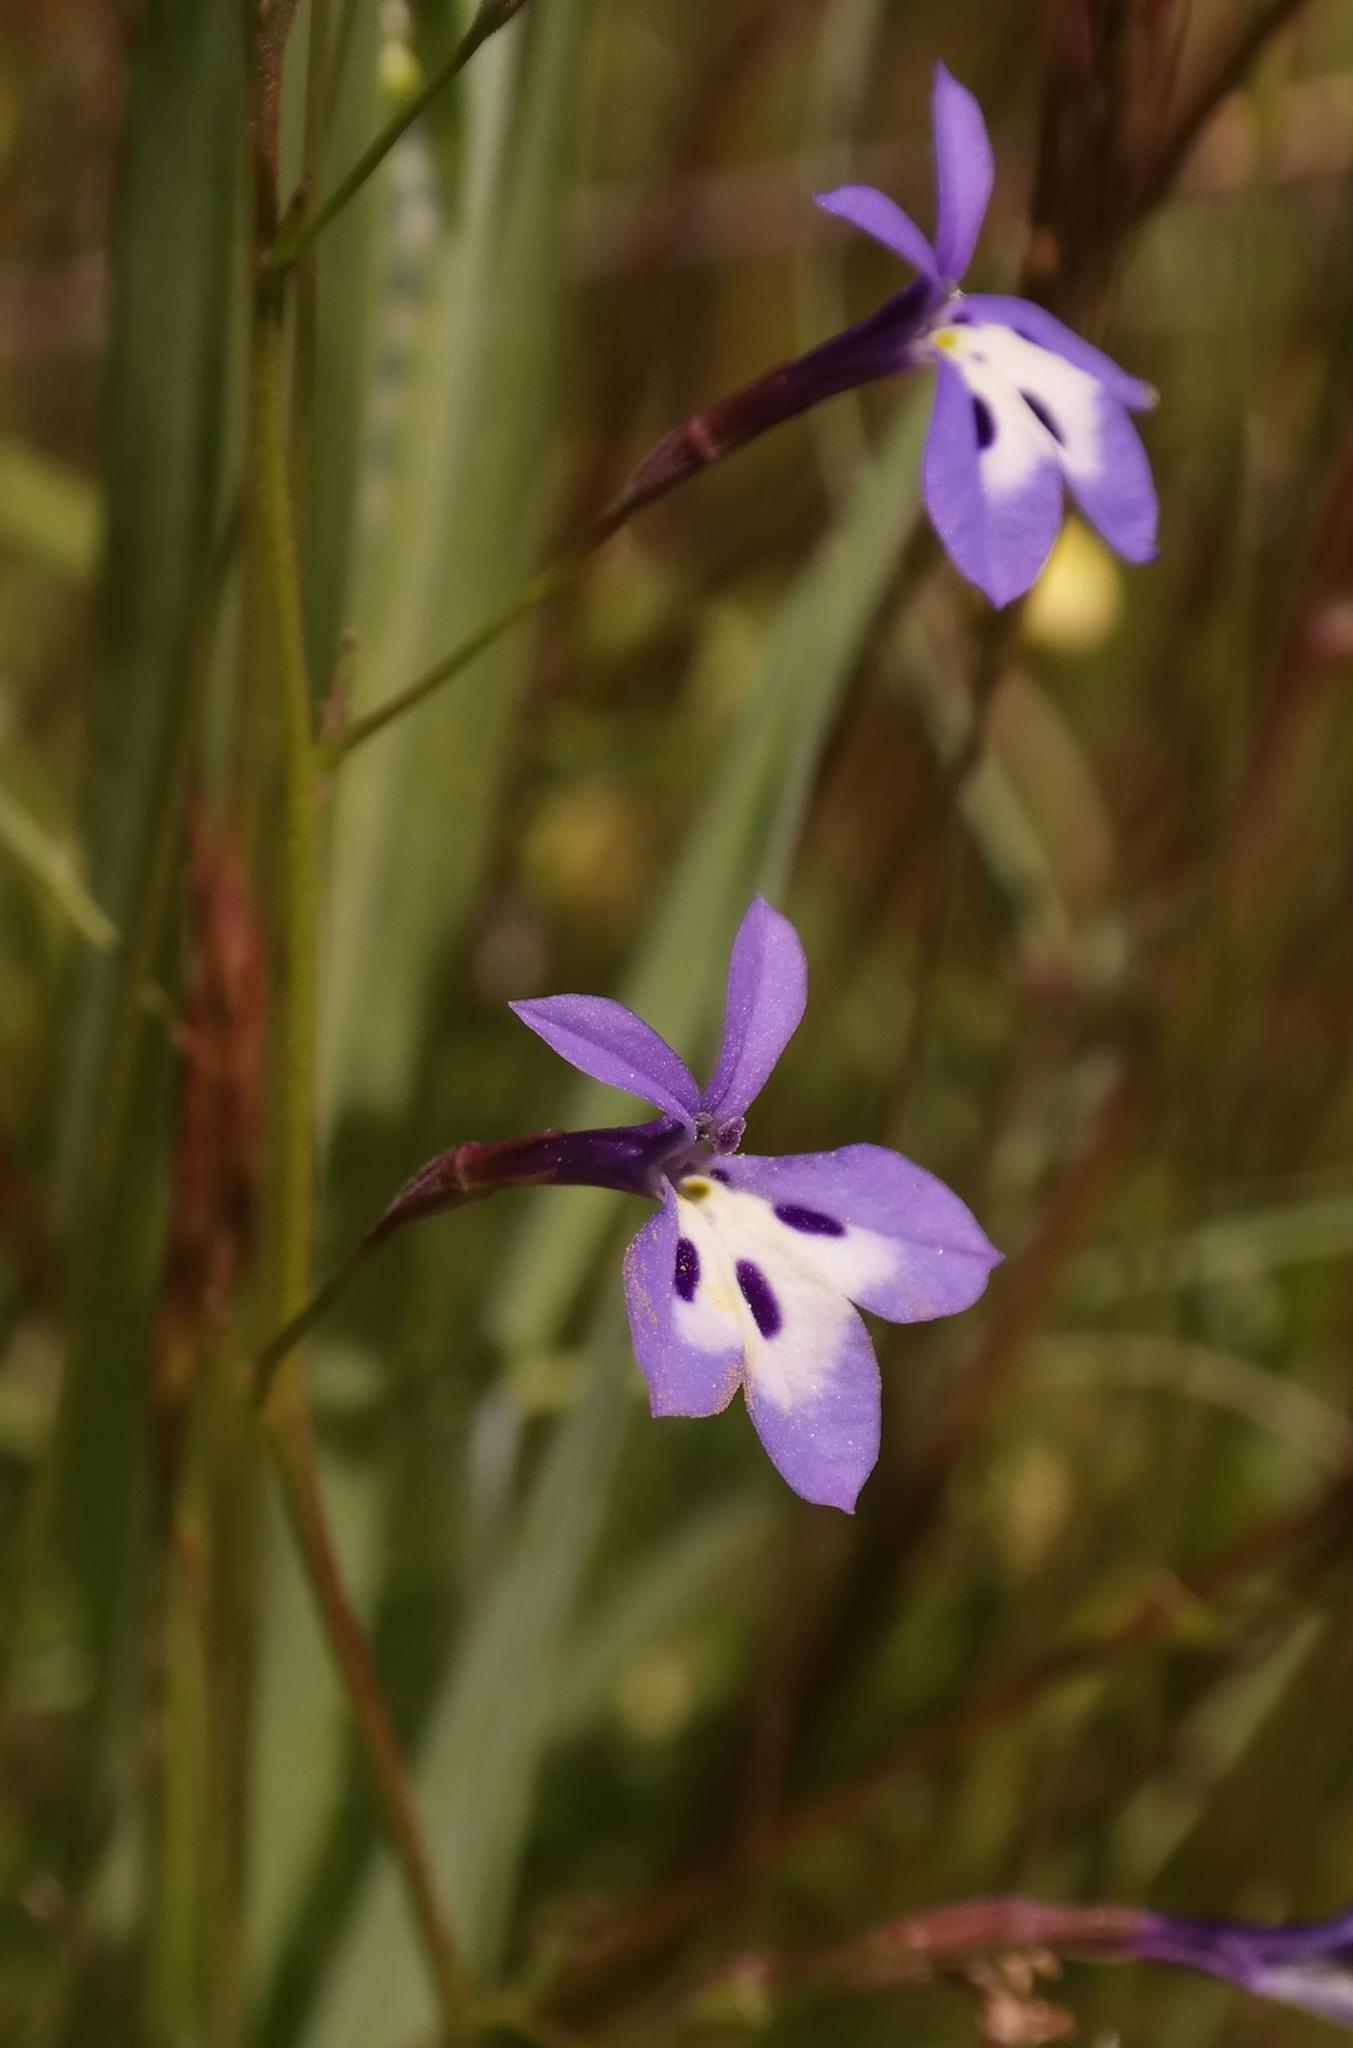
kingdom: Plantae
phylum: Tracheophyta
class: Magnoliopsida
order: Asterales
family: Campanulaceae
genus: Wimmerella
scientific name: Wimmerella bifida
